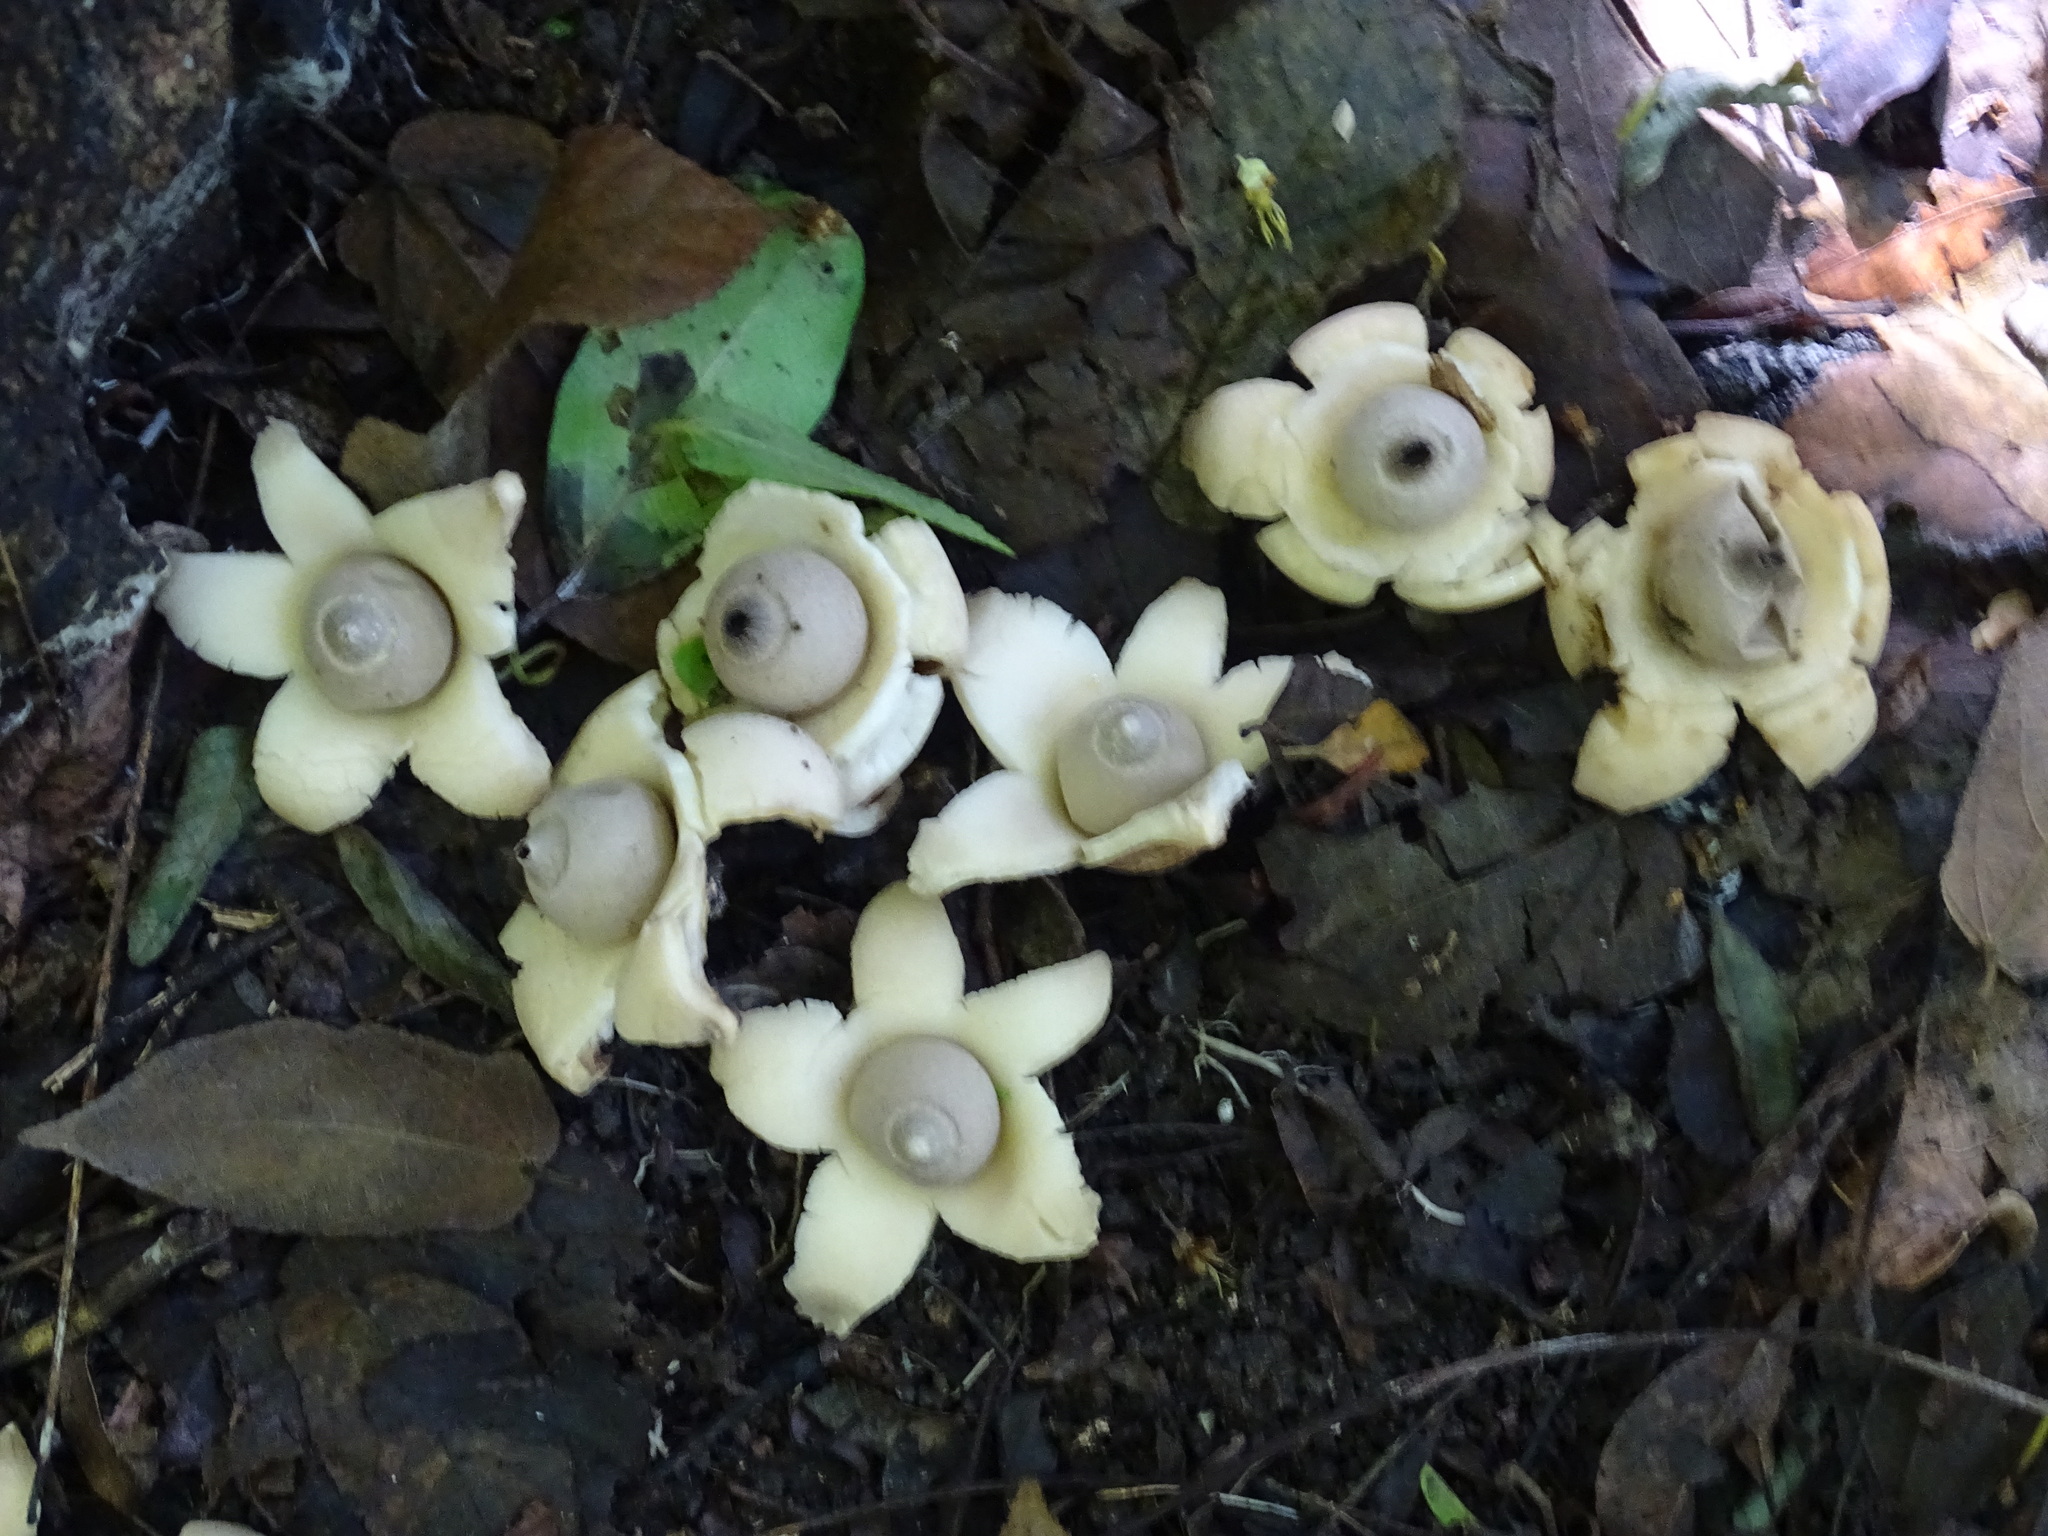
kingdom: Fungi
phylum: Basidiomycota
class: Agaricomycetes
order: Geastrales
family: Geastraceae
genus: Geastrum
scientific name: Geastrum triplex
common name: Collared earthstar
